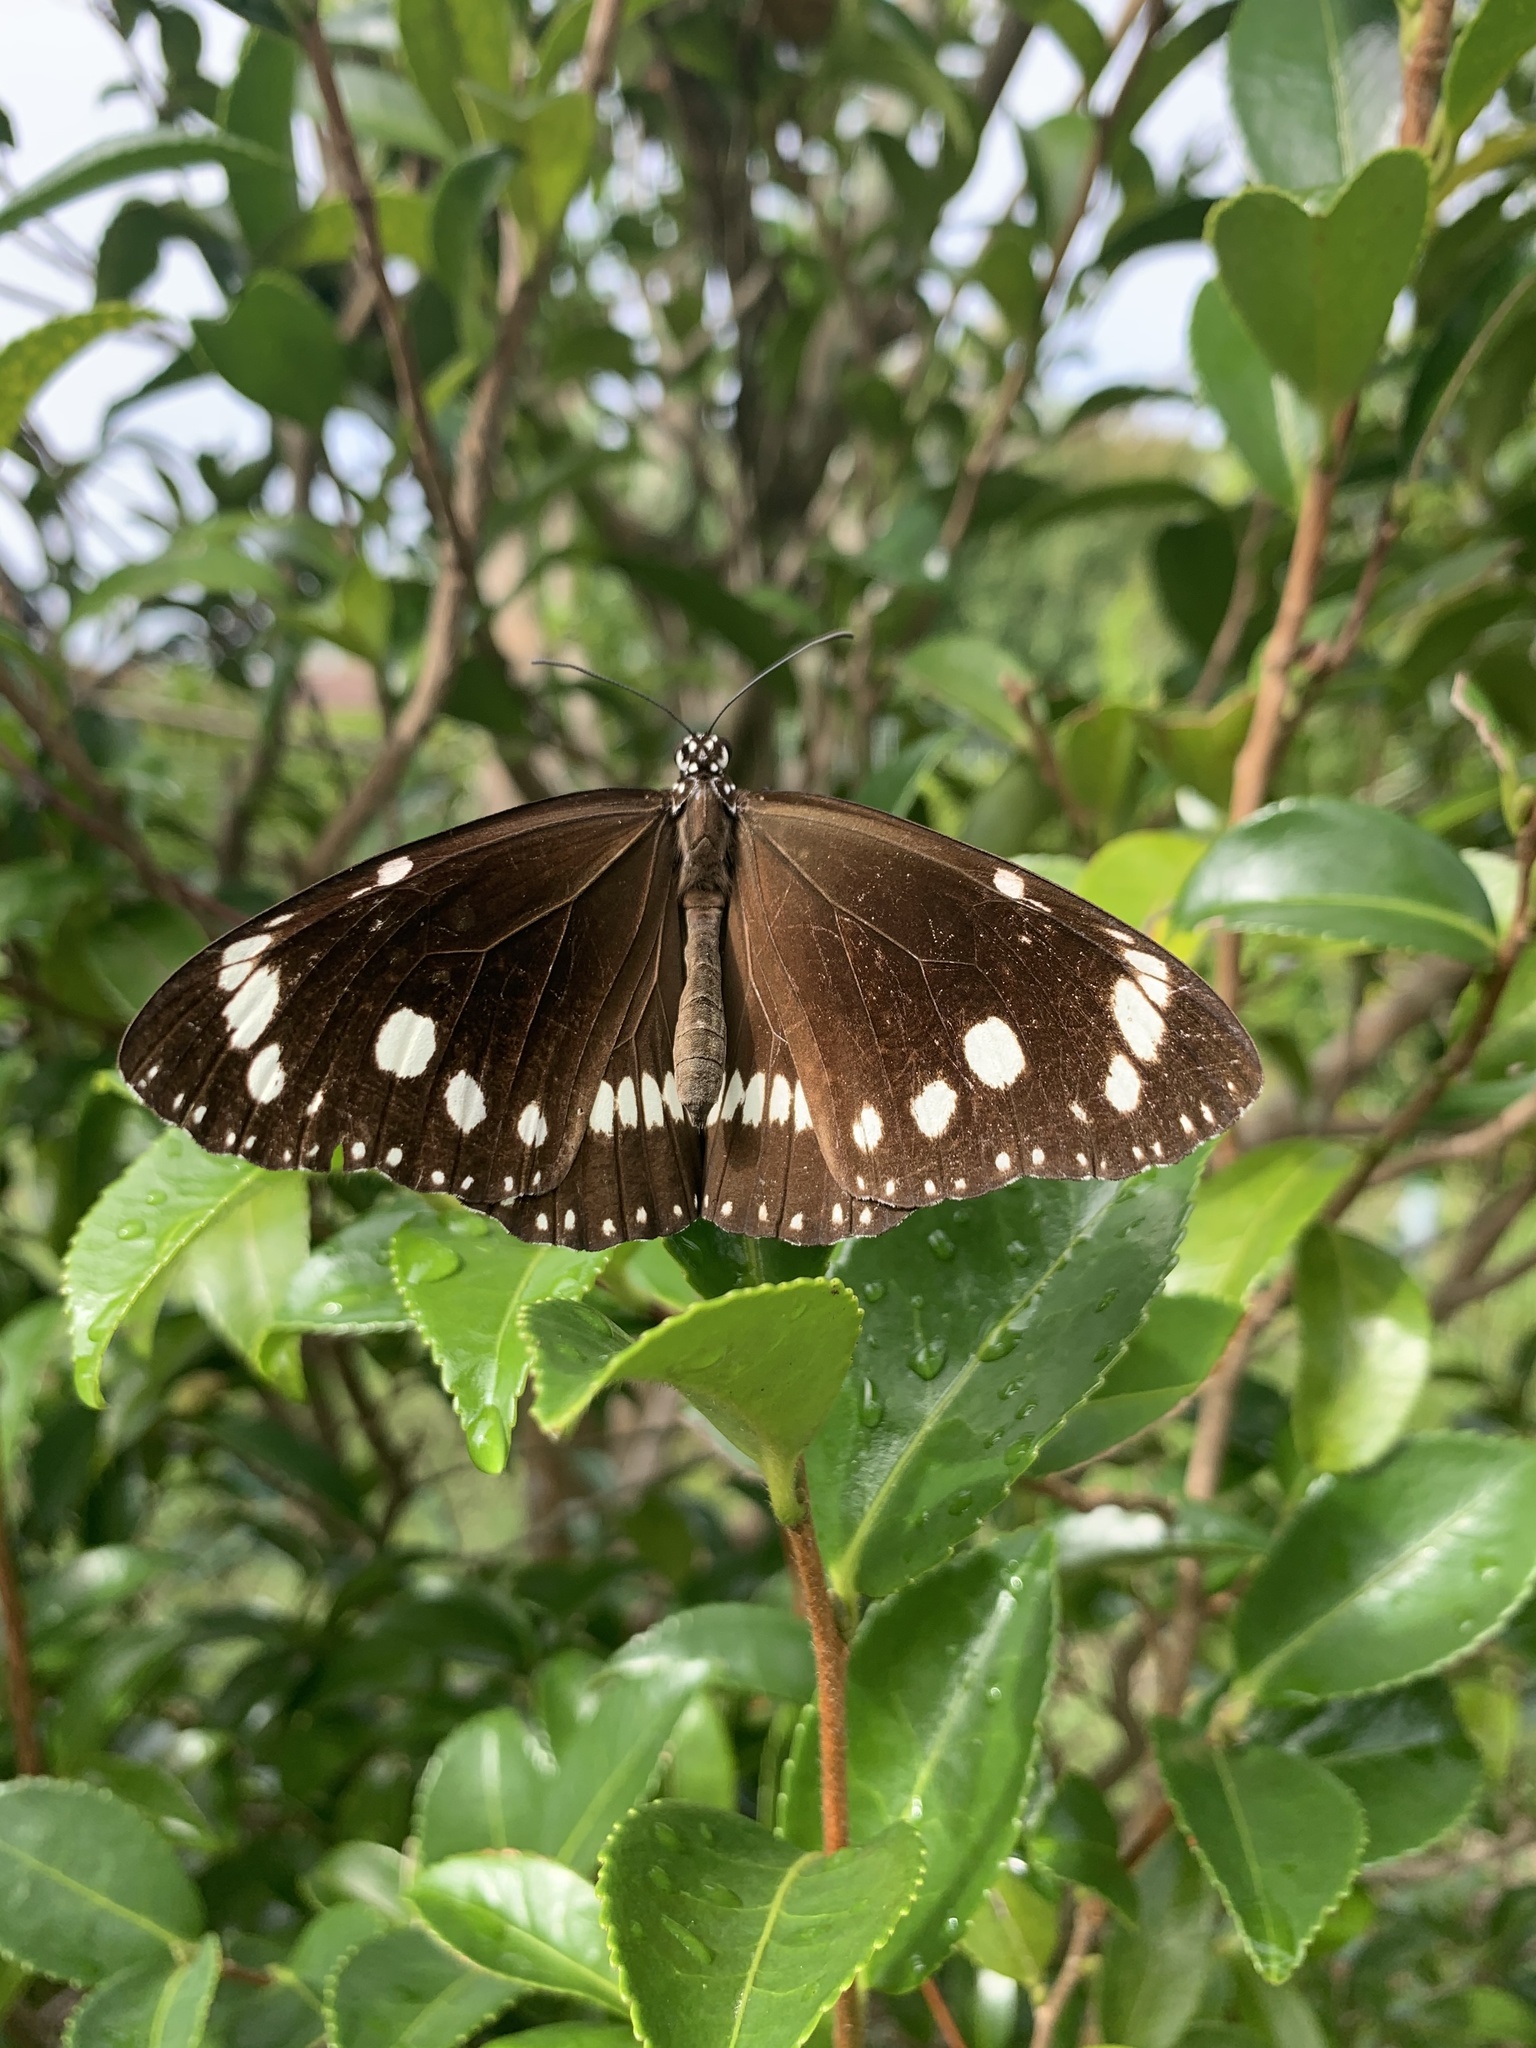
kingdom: Animalia
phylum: Arthropoda
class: Insecta
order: Lepidoptera
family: Nymphalidae
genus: Euploea
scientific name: Euploea core
